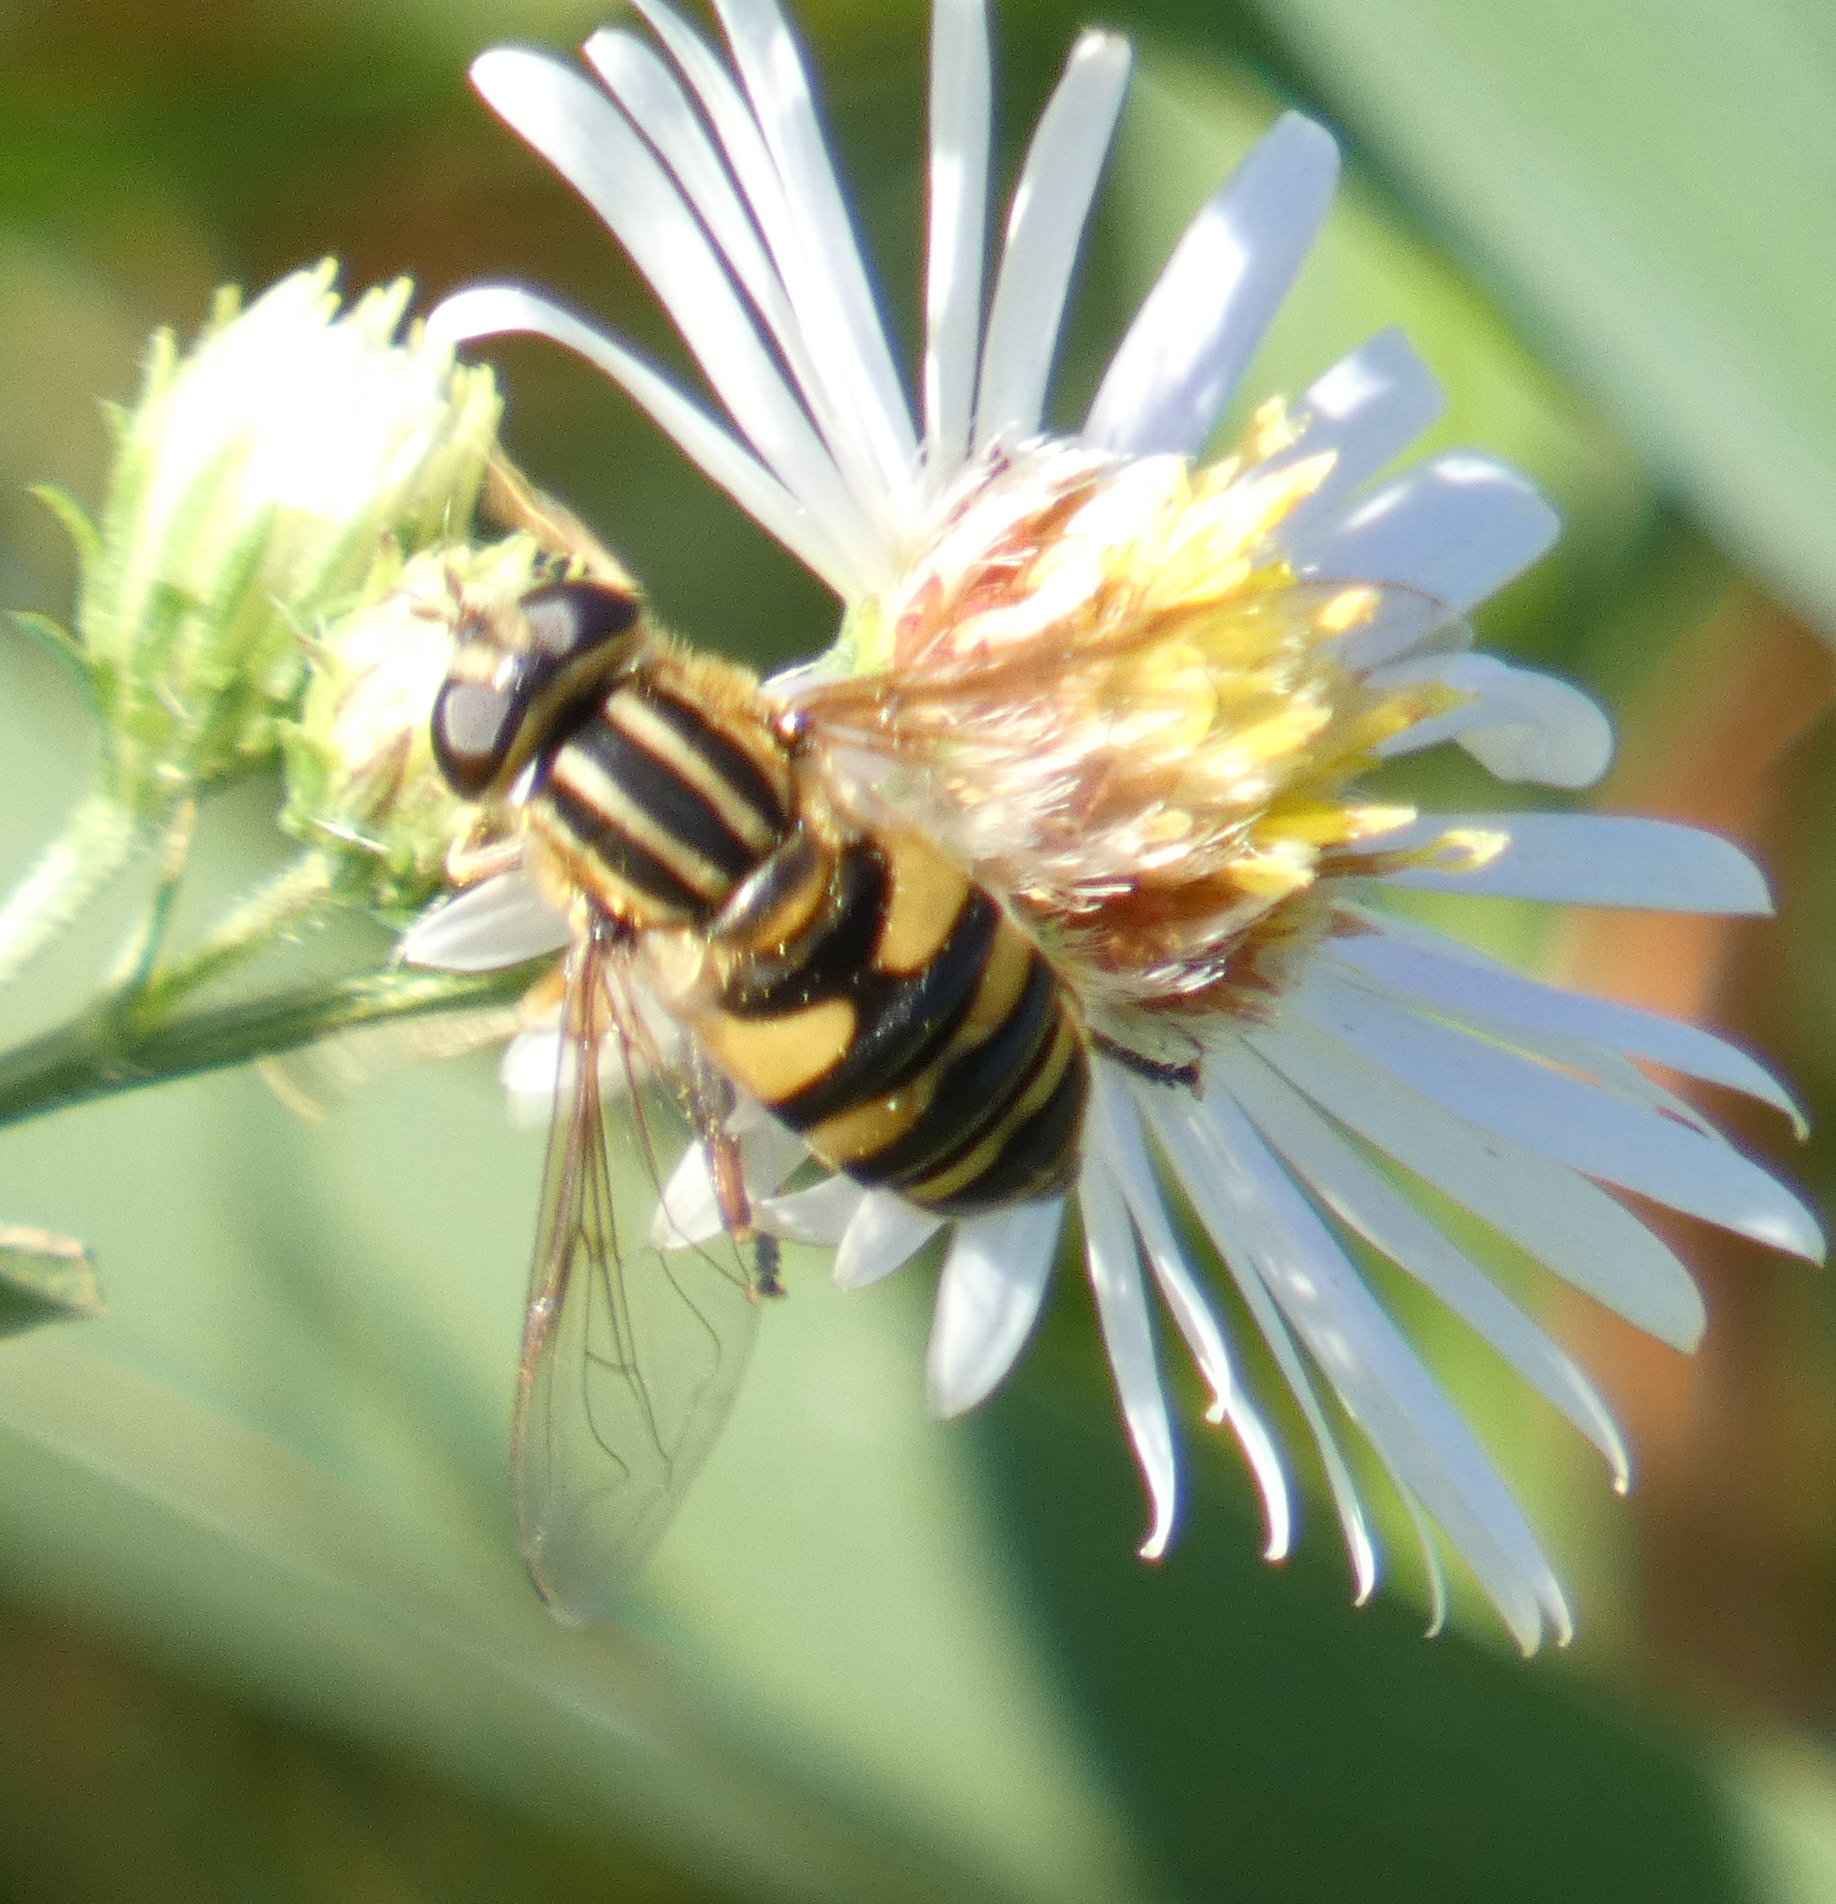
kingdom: Animalia
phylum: Arthropoda
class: Insecta
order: Diptera
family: Syrphidae
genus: Helophilus
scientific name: Helophilus fasciatus
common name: Narrow-headed marsh fly
